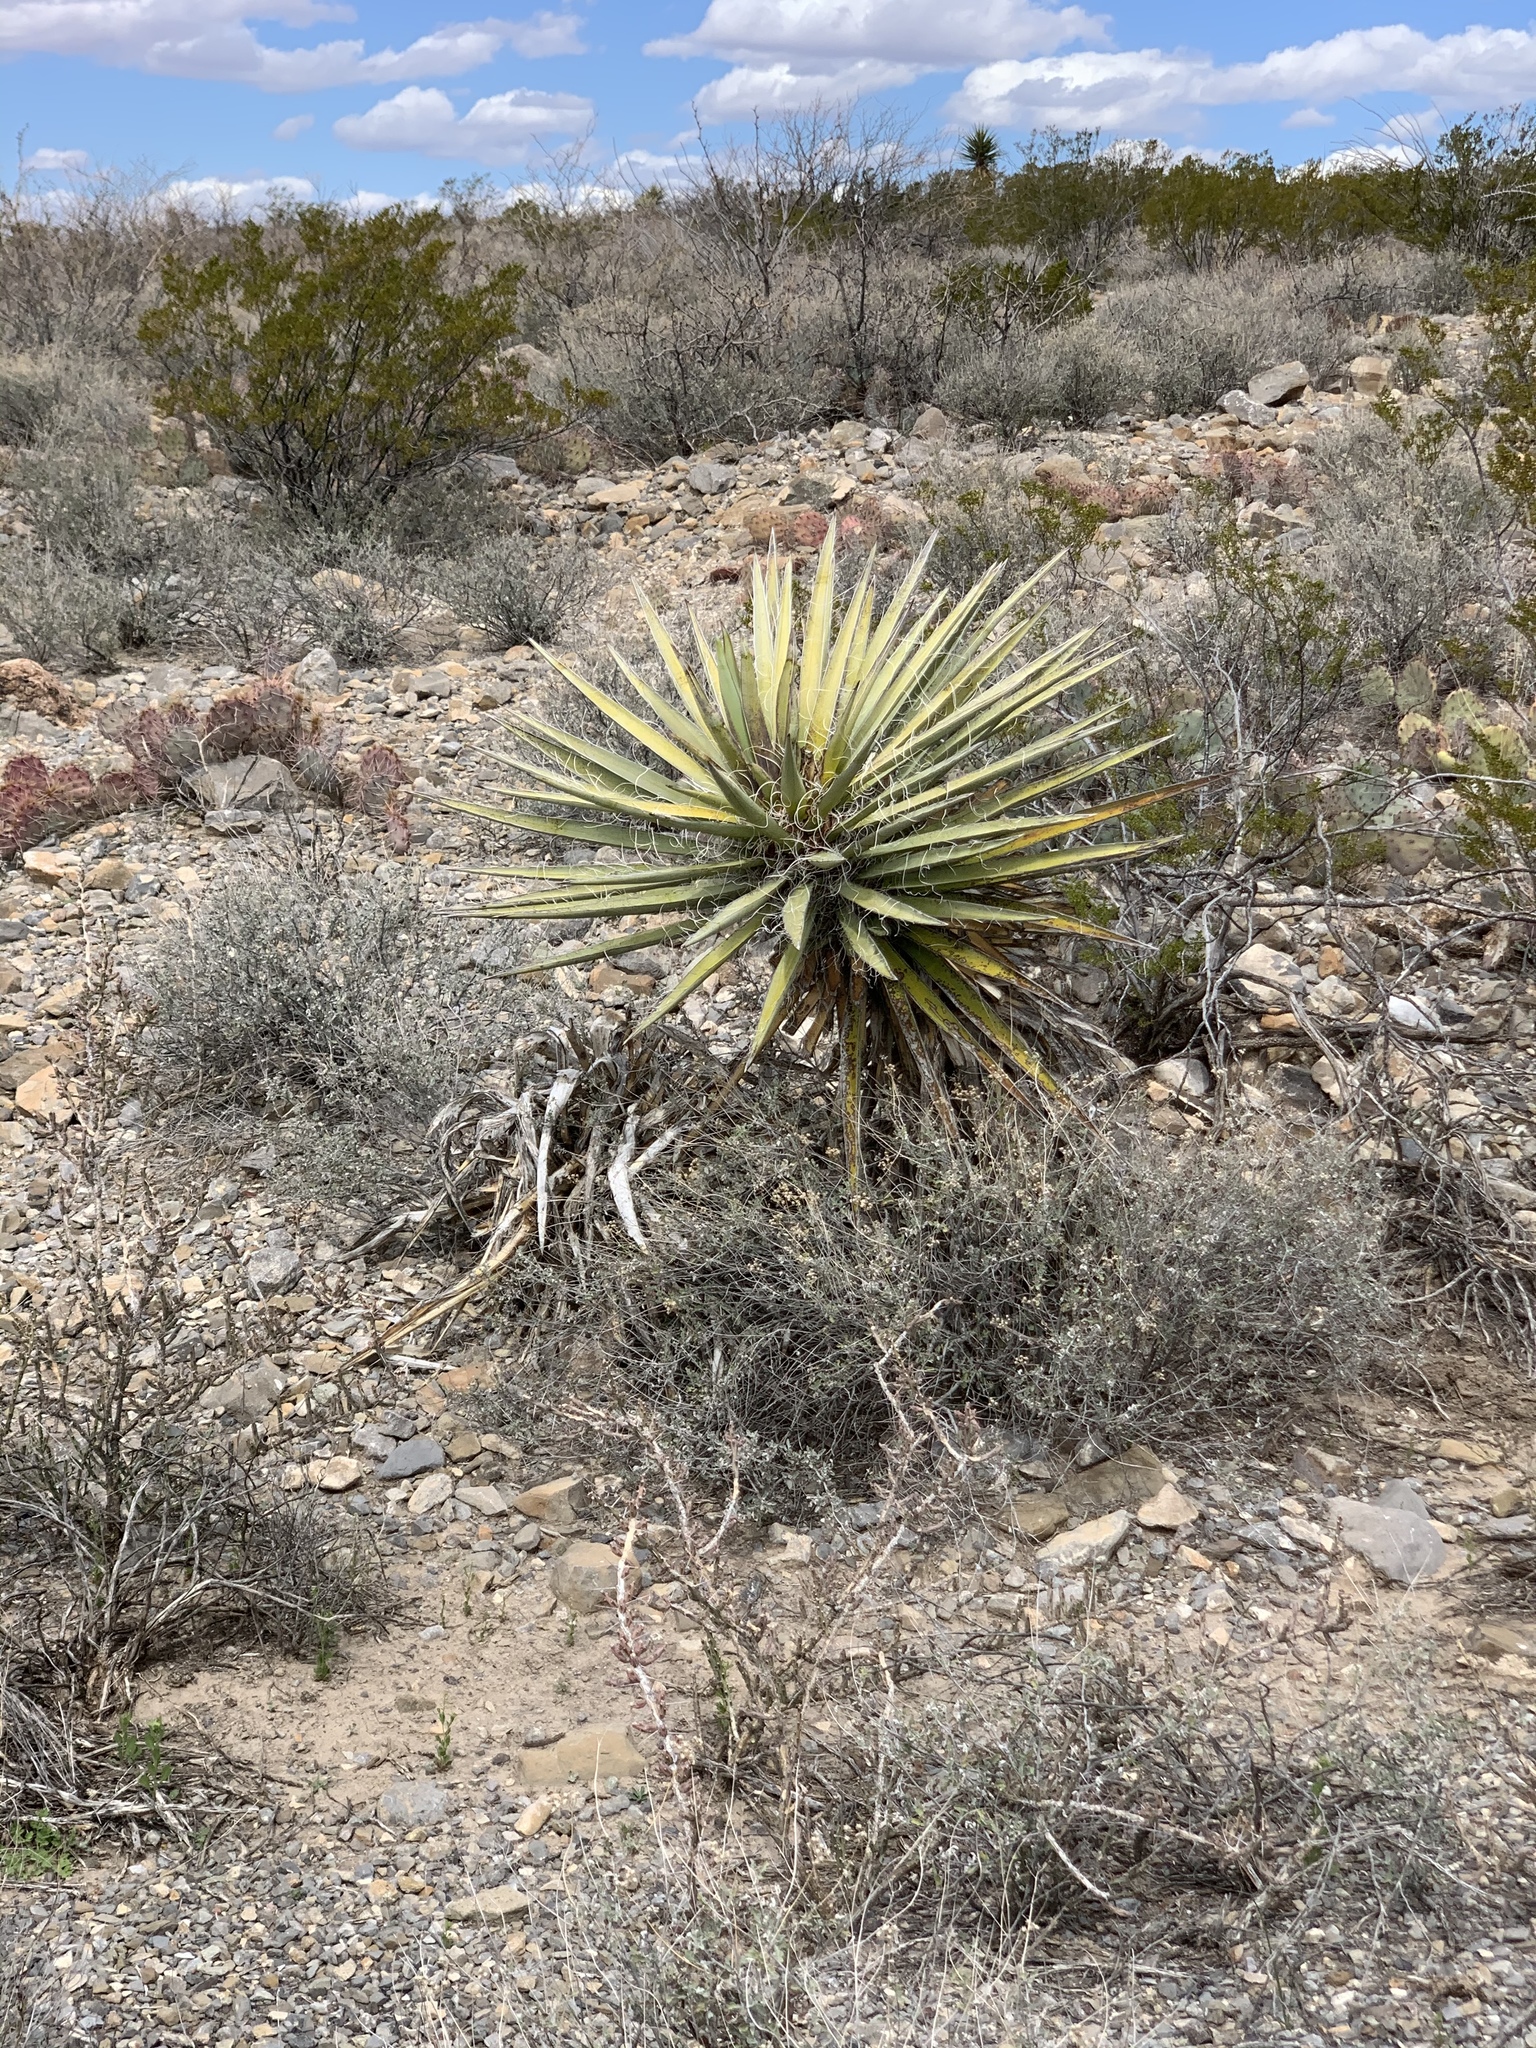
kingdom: Plantae
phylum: Tracheophyta
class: Liliopsida
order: Asparagales
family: Asparagaceae
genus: Yucca
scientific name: Yucca baccata
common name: Banana yucca
